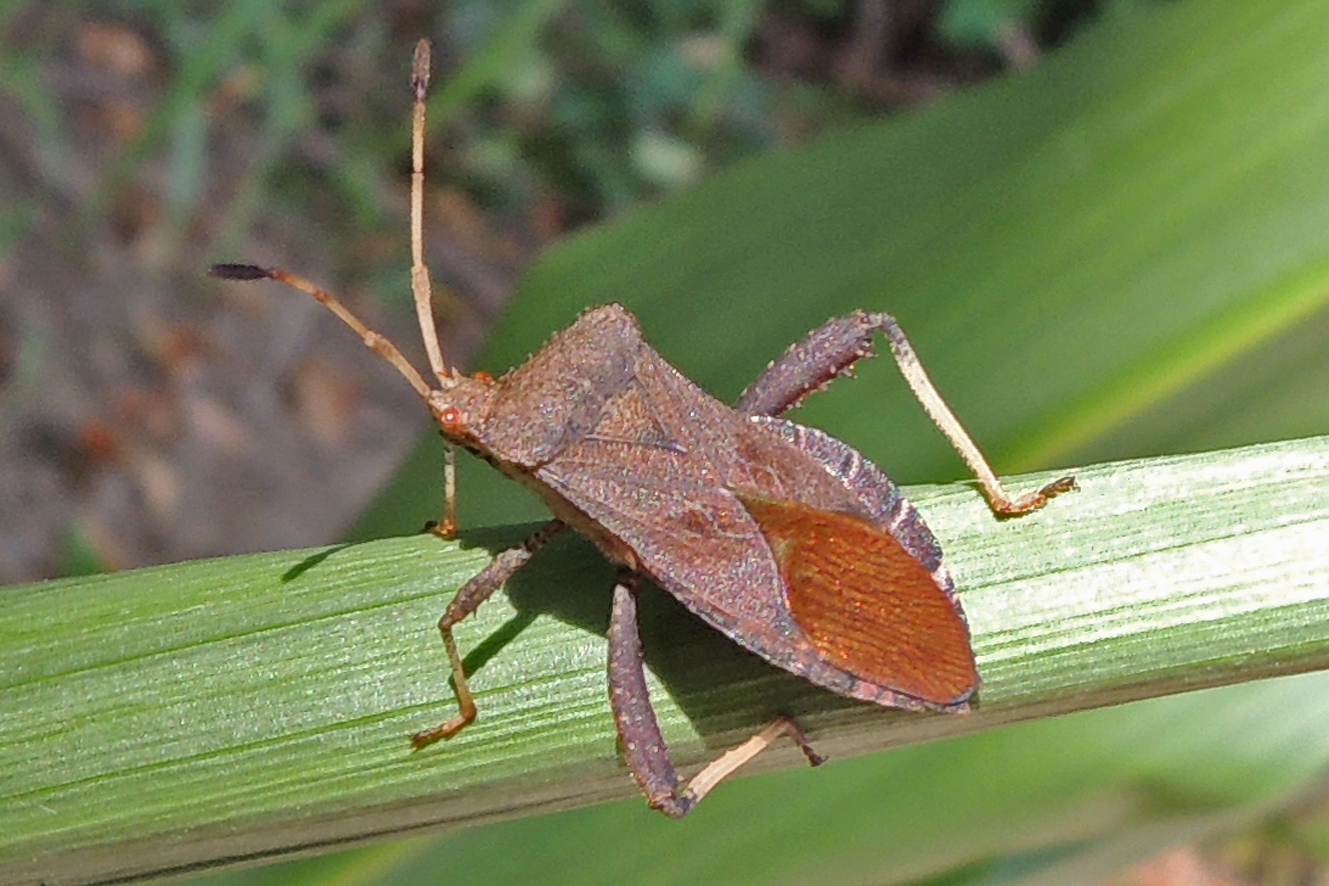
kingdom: Animalia
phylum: Arthropoda
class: Insecta
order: Hemiptera
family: Coreidae
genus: Euthochtha
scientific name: Euthochtha galeator
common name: Helmeted squash bug
